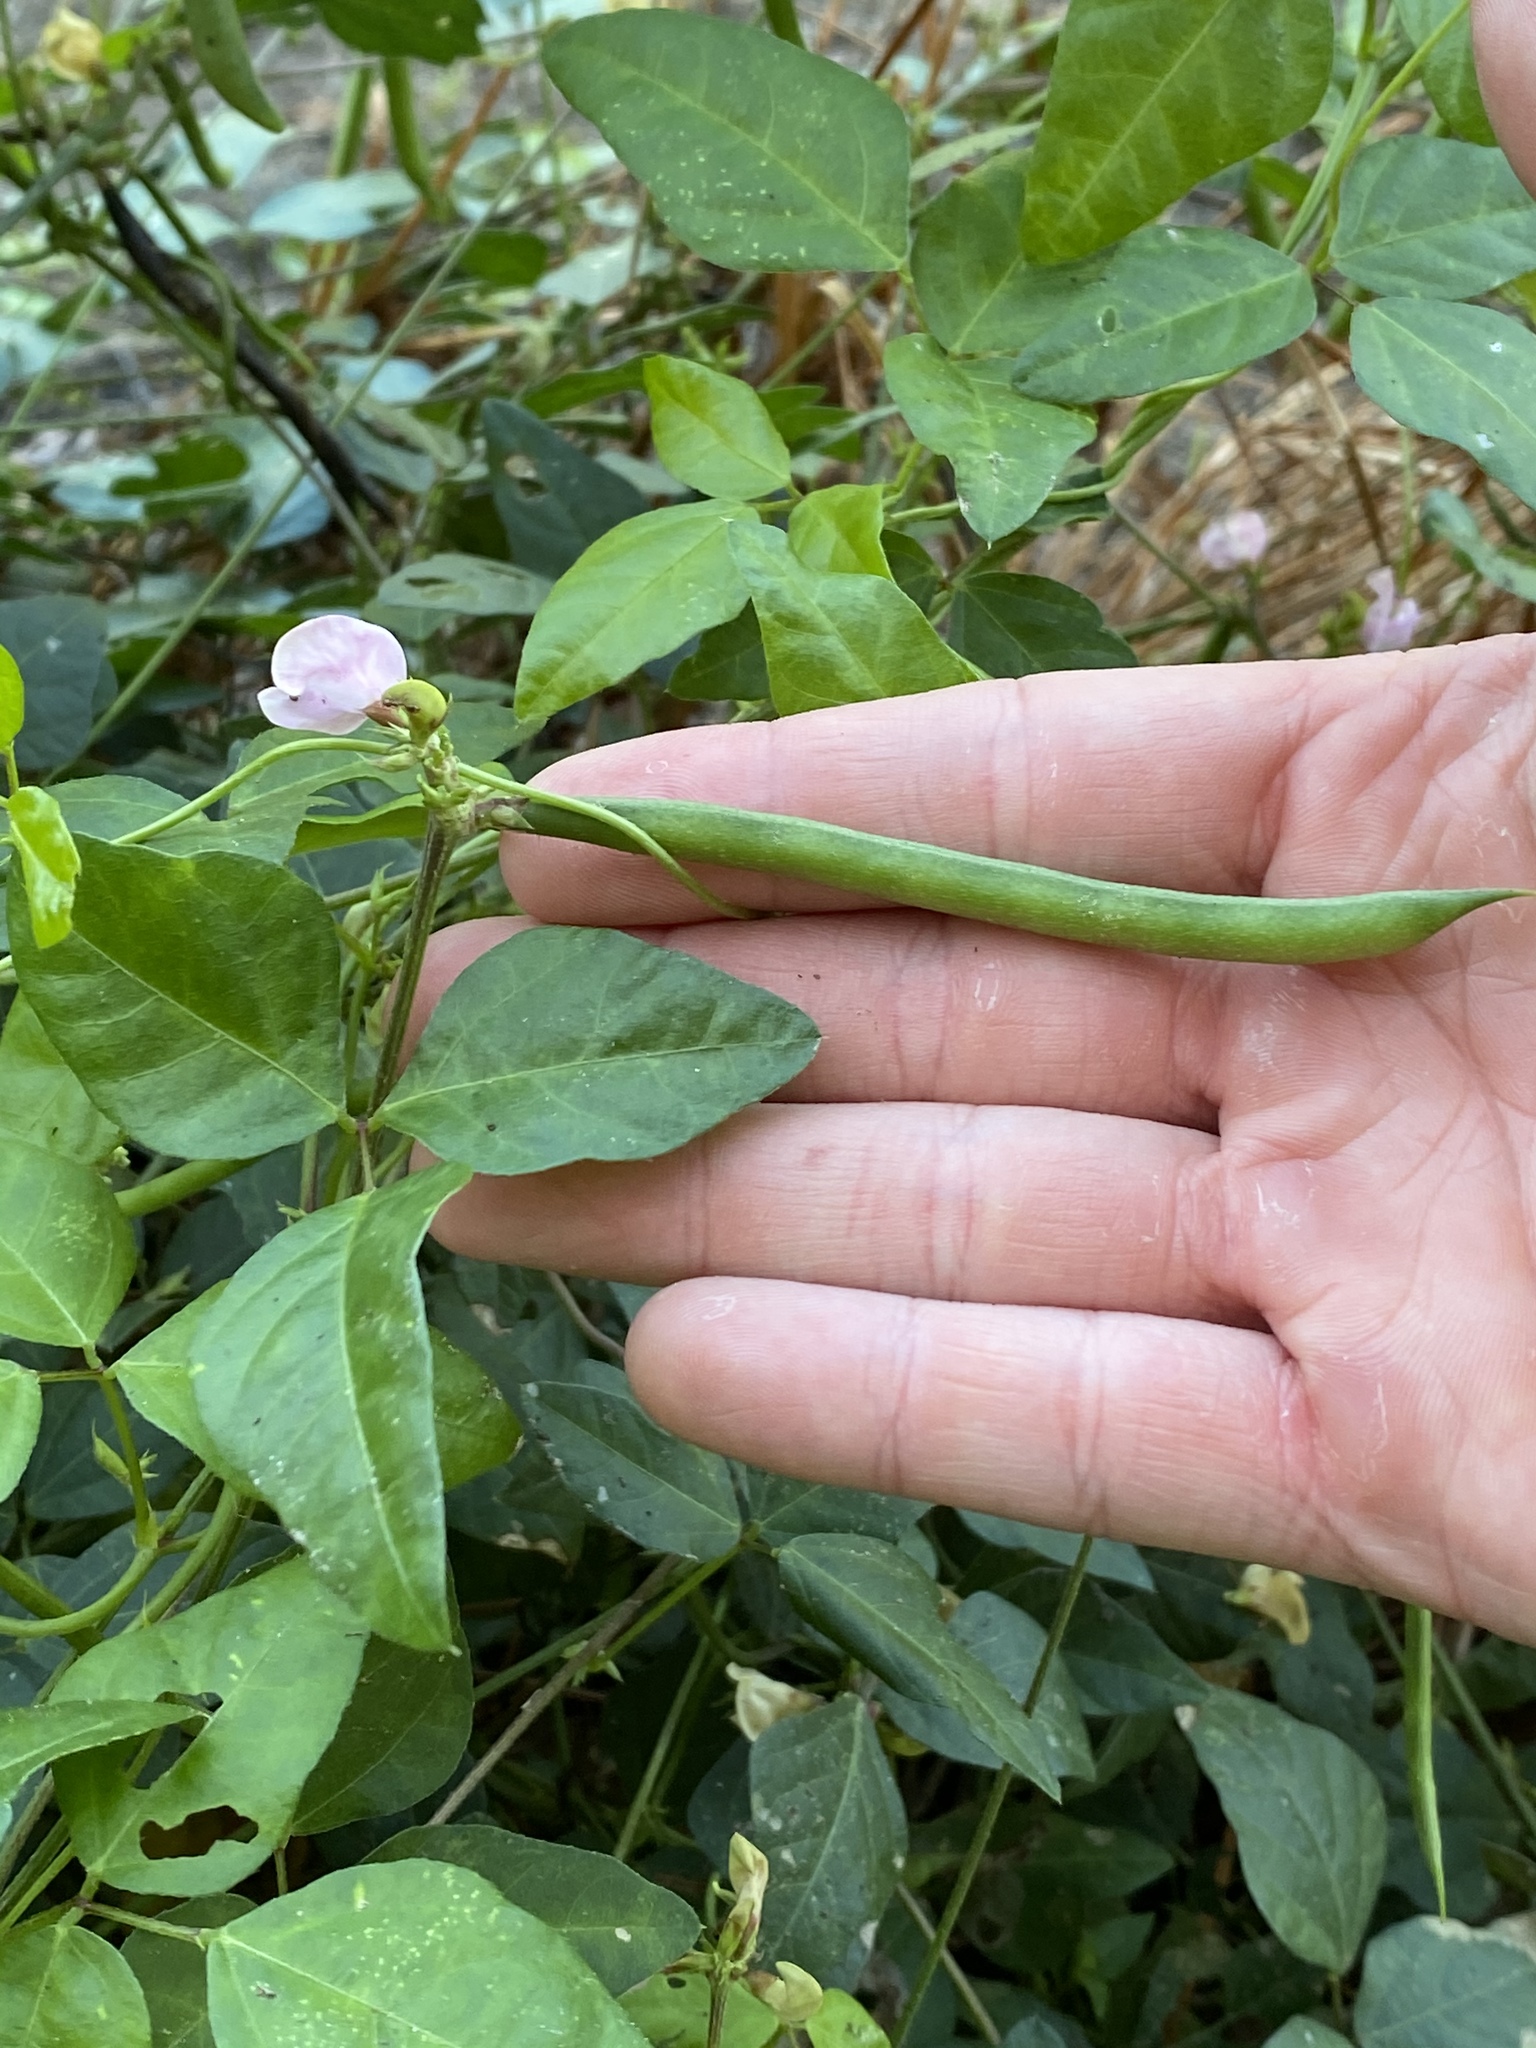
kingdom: Plantae
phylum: Tracheophyta
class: Magnoliopsida
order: Fabales
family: Fabaceae
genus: Strophostyles
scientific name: Strophostyles helvola
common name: Trailing wild bean
